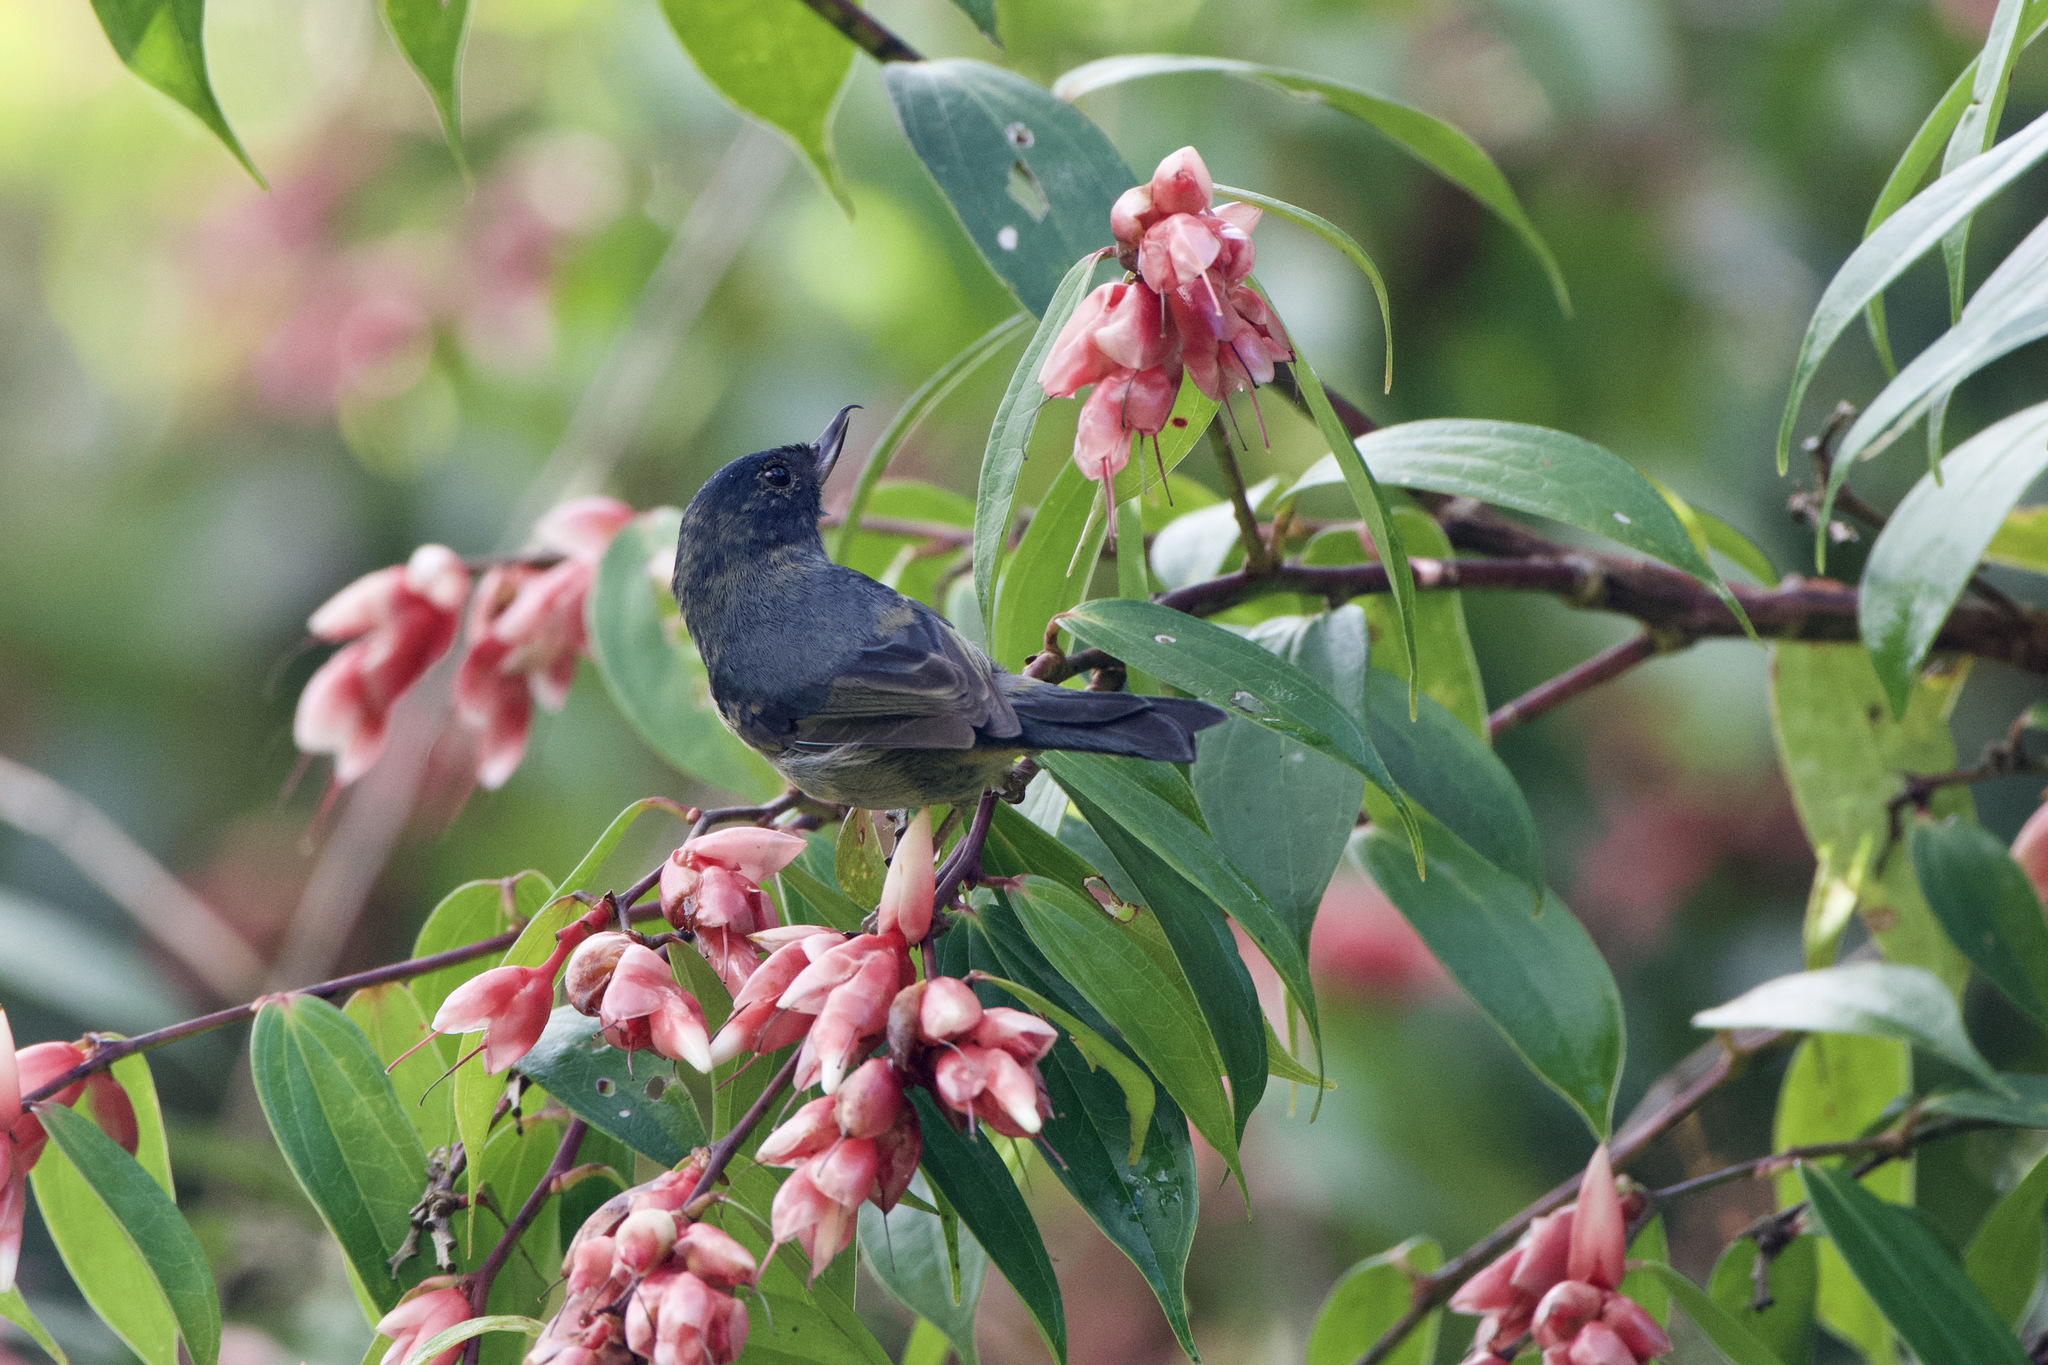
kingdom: Animalia
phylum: Chordata
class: Aves
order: Passeriformes
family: Thraupidae
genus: Diglossa
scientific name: Diglossa plumbea
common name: Slaty flowerpiercer
